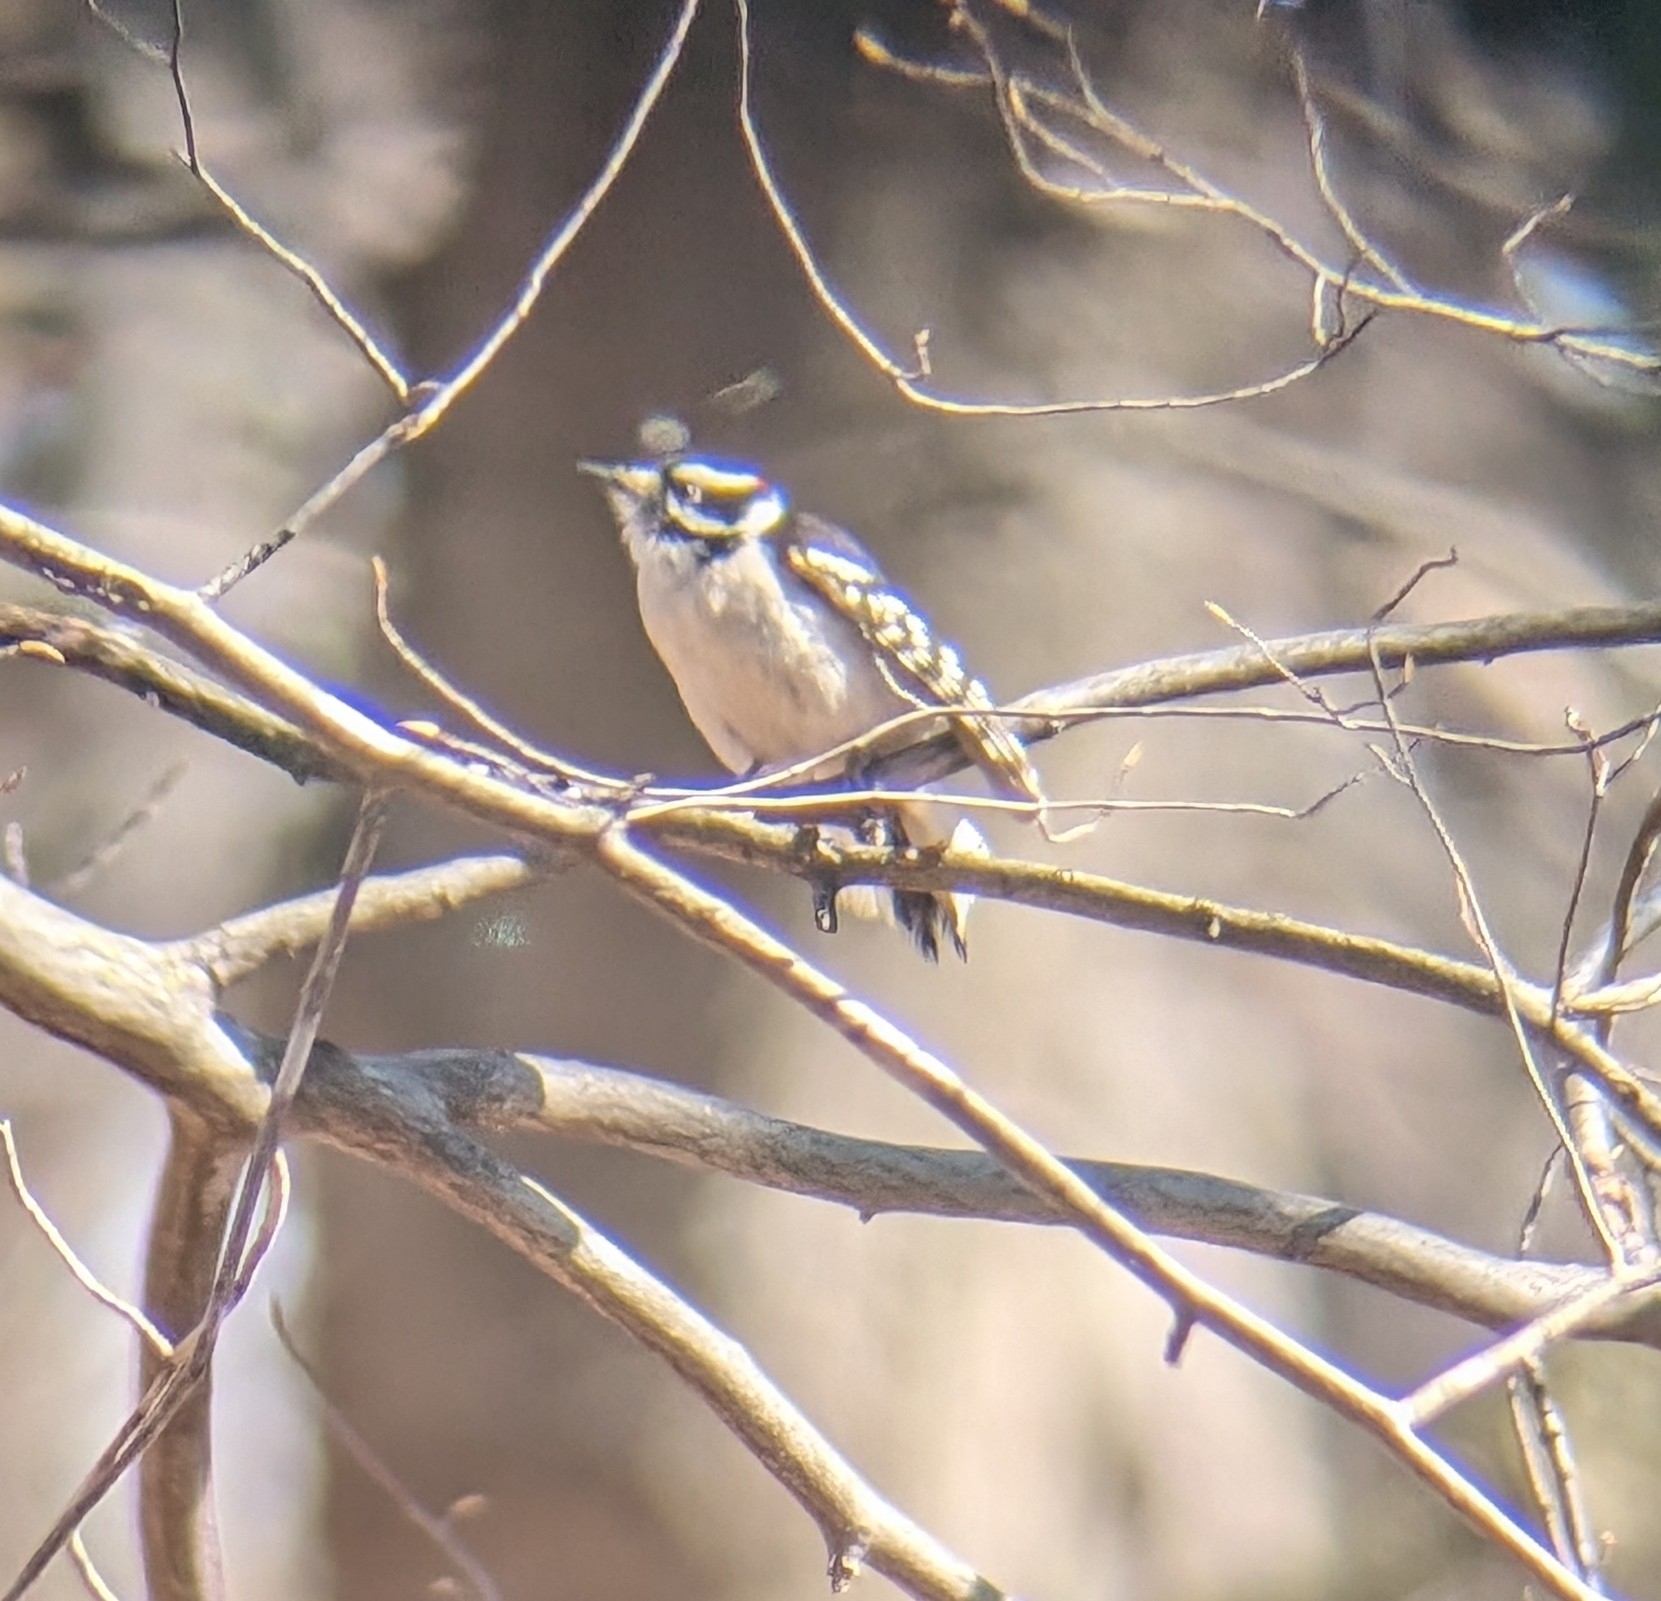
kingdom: Animalia
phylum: Chordata
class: Aves
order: Piciformes
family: Picidae
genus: Dryobates
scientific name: Dryobates pubescens
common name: Downy woodpecker
